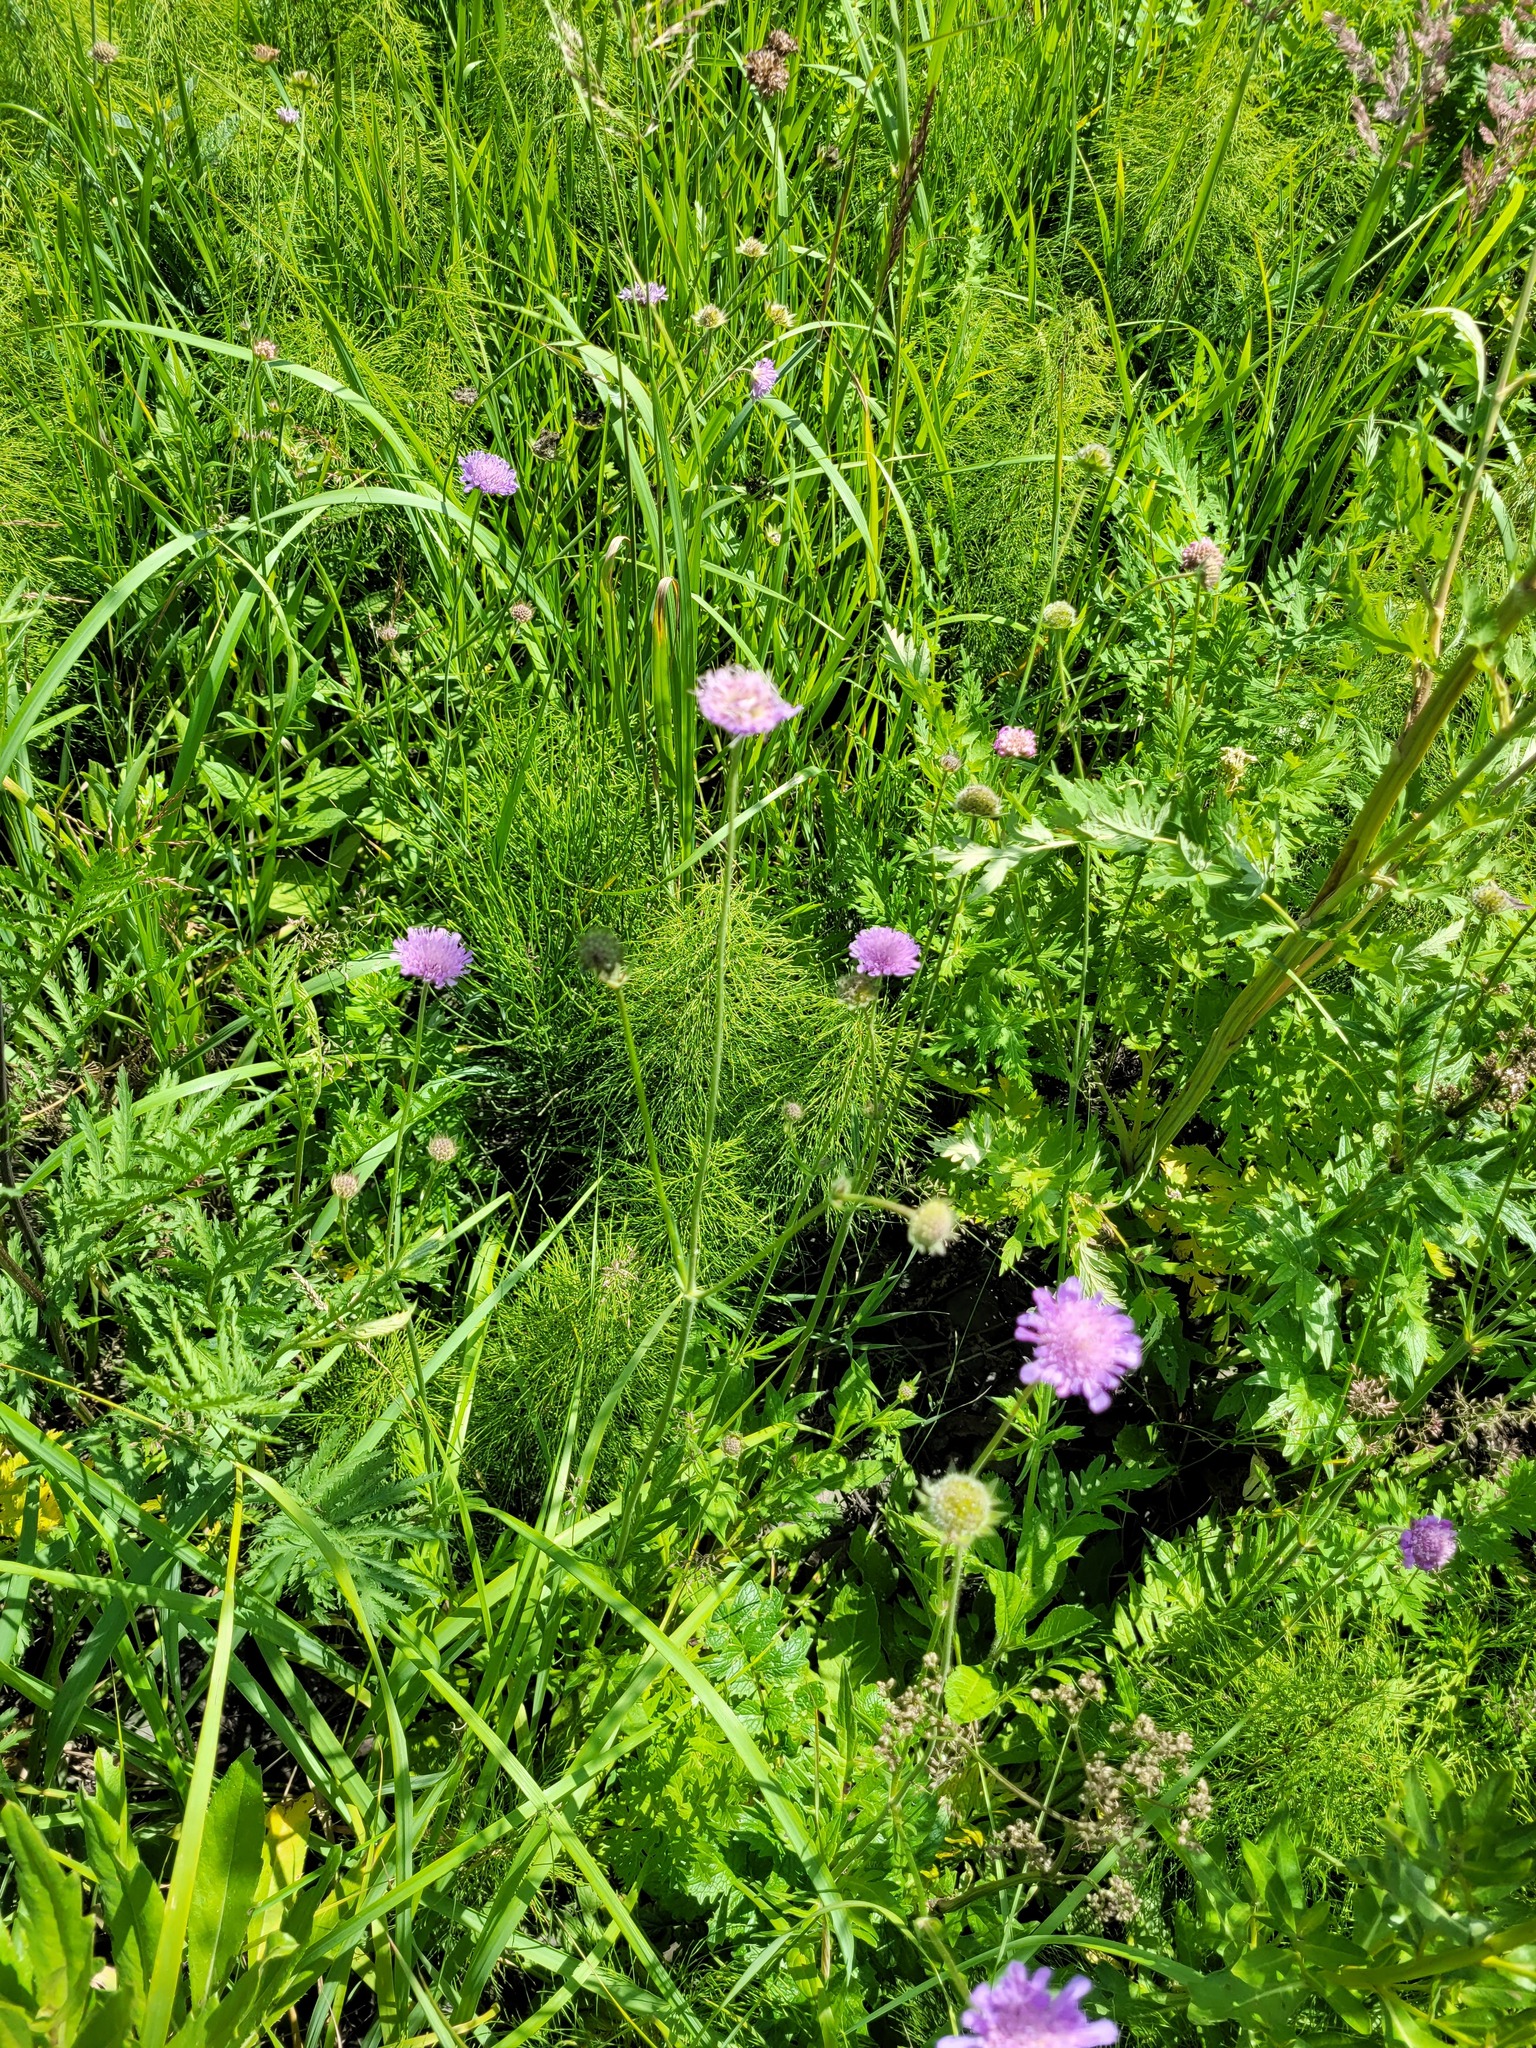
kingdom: Plantae
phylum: Tracheophyta
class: Magnoliopsida
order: Dipsacales
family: Caprifoliaceae
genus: Knautia
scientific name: Knautia arvensis
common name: Field scabiosa
